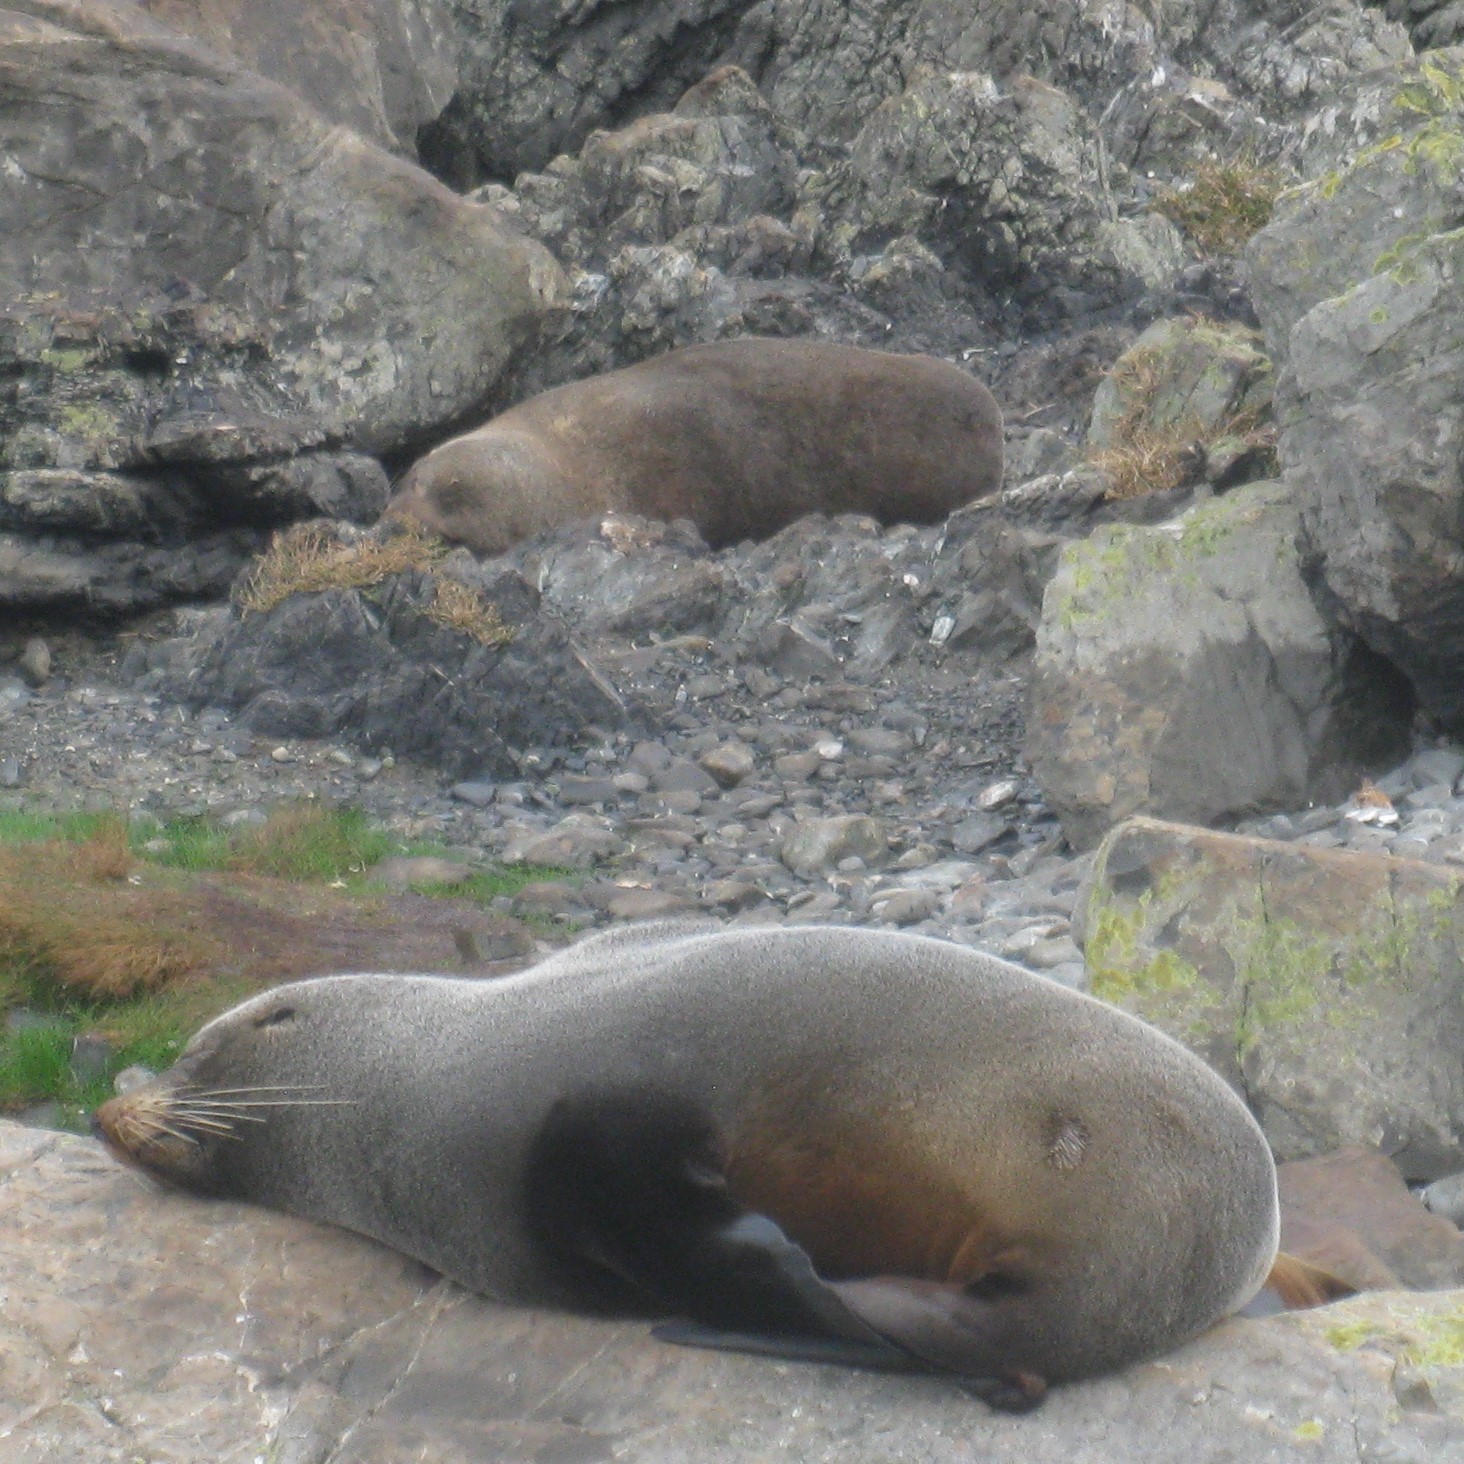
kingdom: Animalia
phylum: Chordata
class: Mammalia
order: Carnivora
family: Otariidae
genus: Arctocephalus
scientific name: Arctocephalus forsteri
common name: New zealand fur seal
